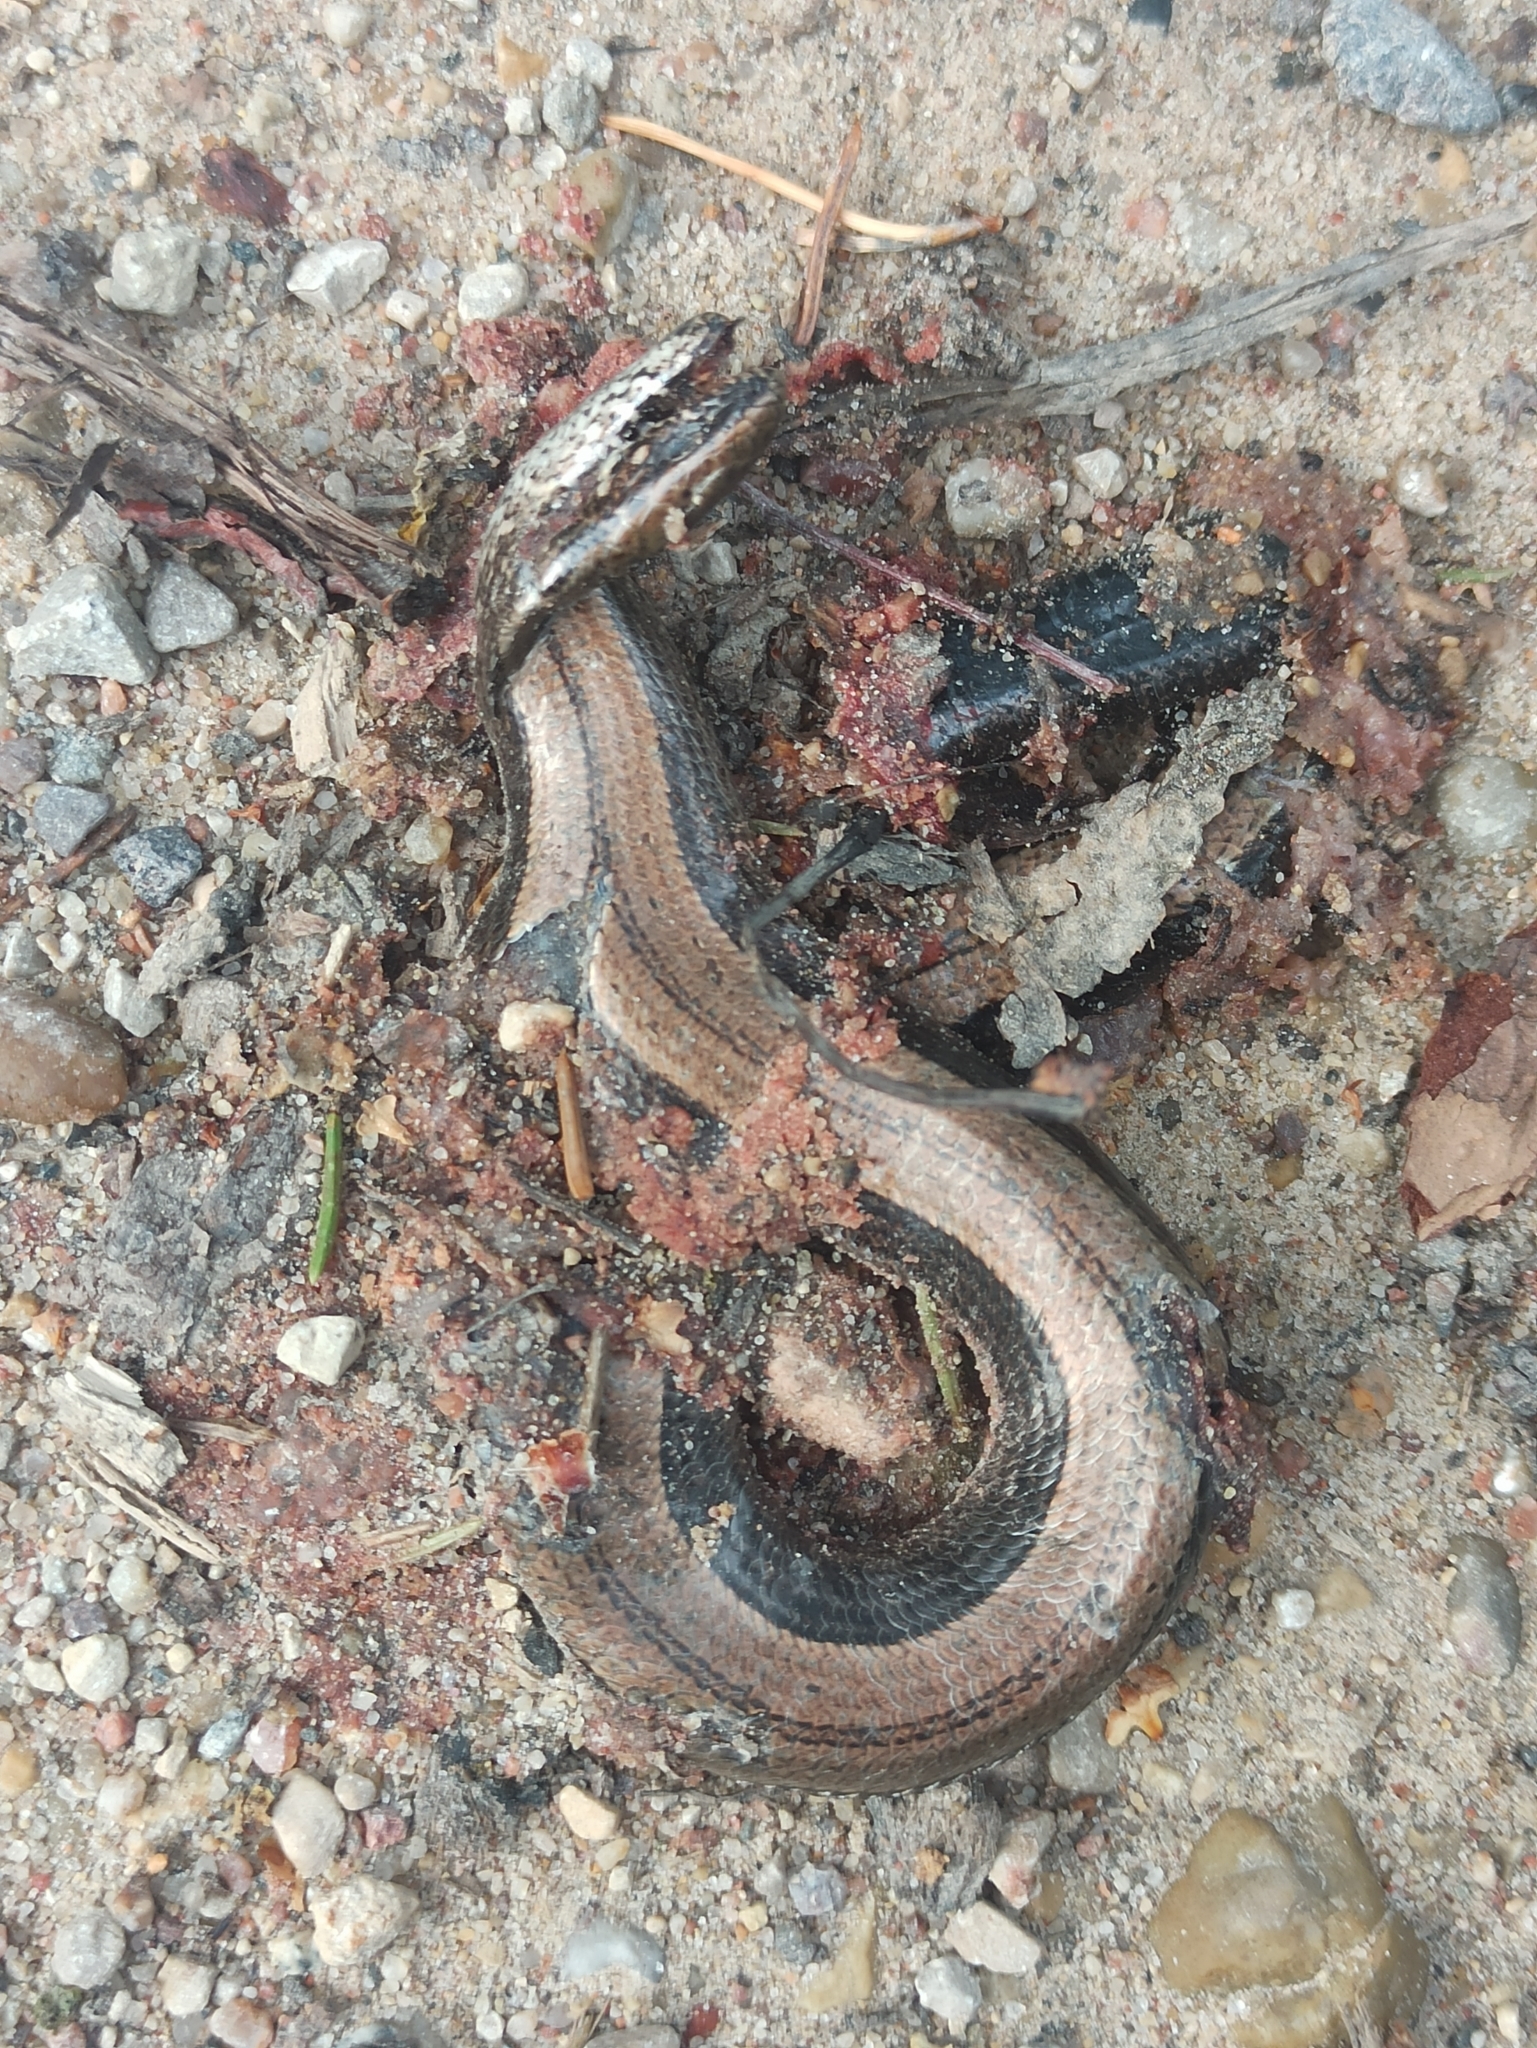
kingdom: Animalia
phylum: Chordata
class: Squamata
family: Anguidae
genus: Anguis
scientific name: Anguis colchica
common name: Slow worm
